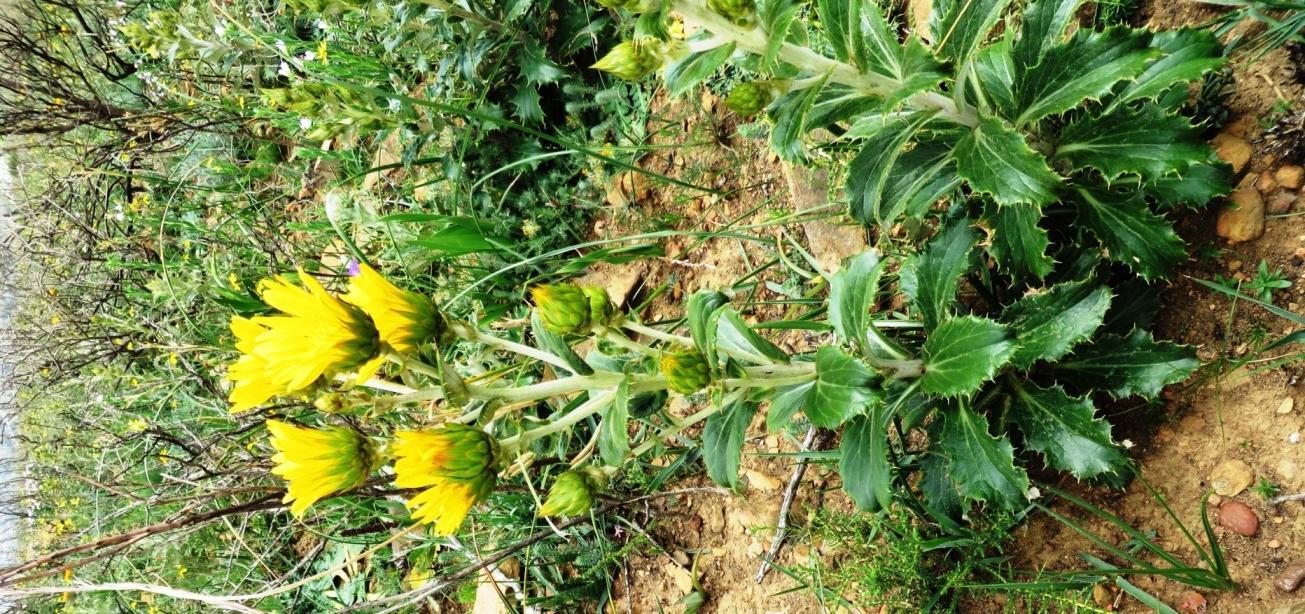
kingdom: Plantae
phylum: Tracheophyta
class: Magnoliopsida
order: Asterales
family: Asteraceae
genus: Berkheya
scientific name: Berkheya herbacea
